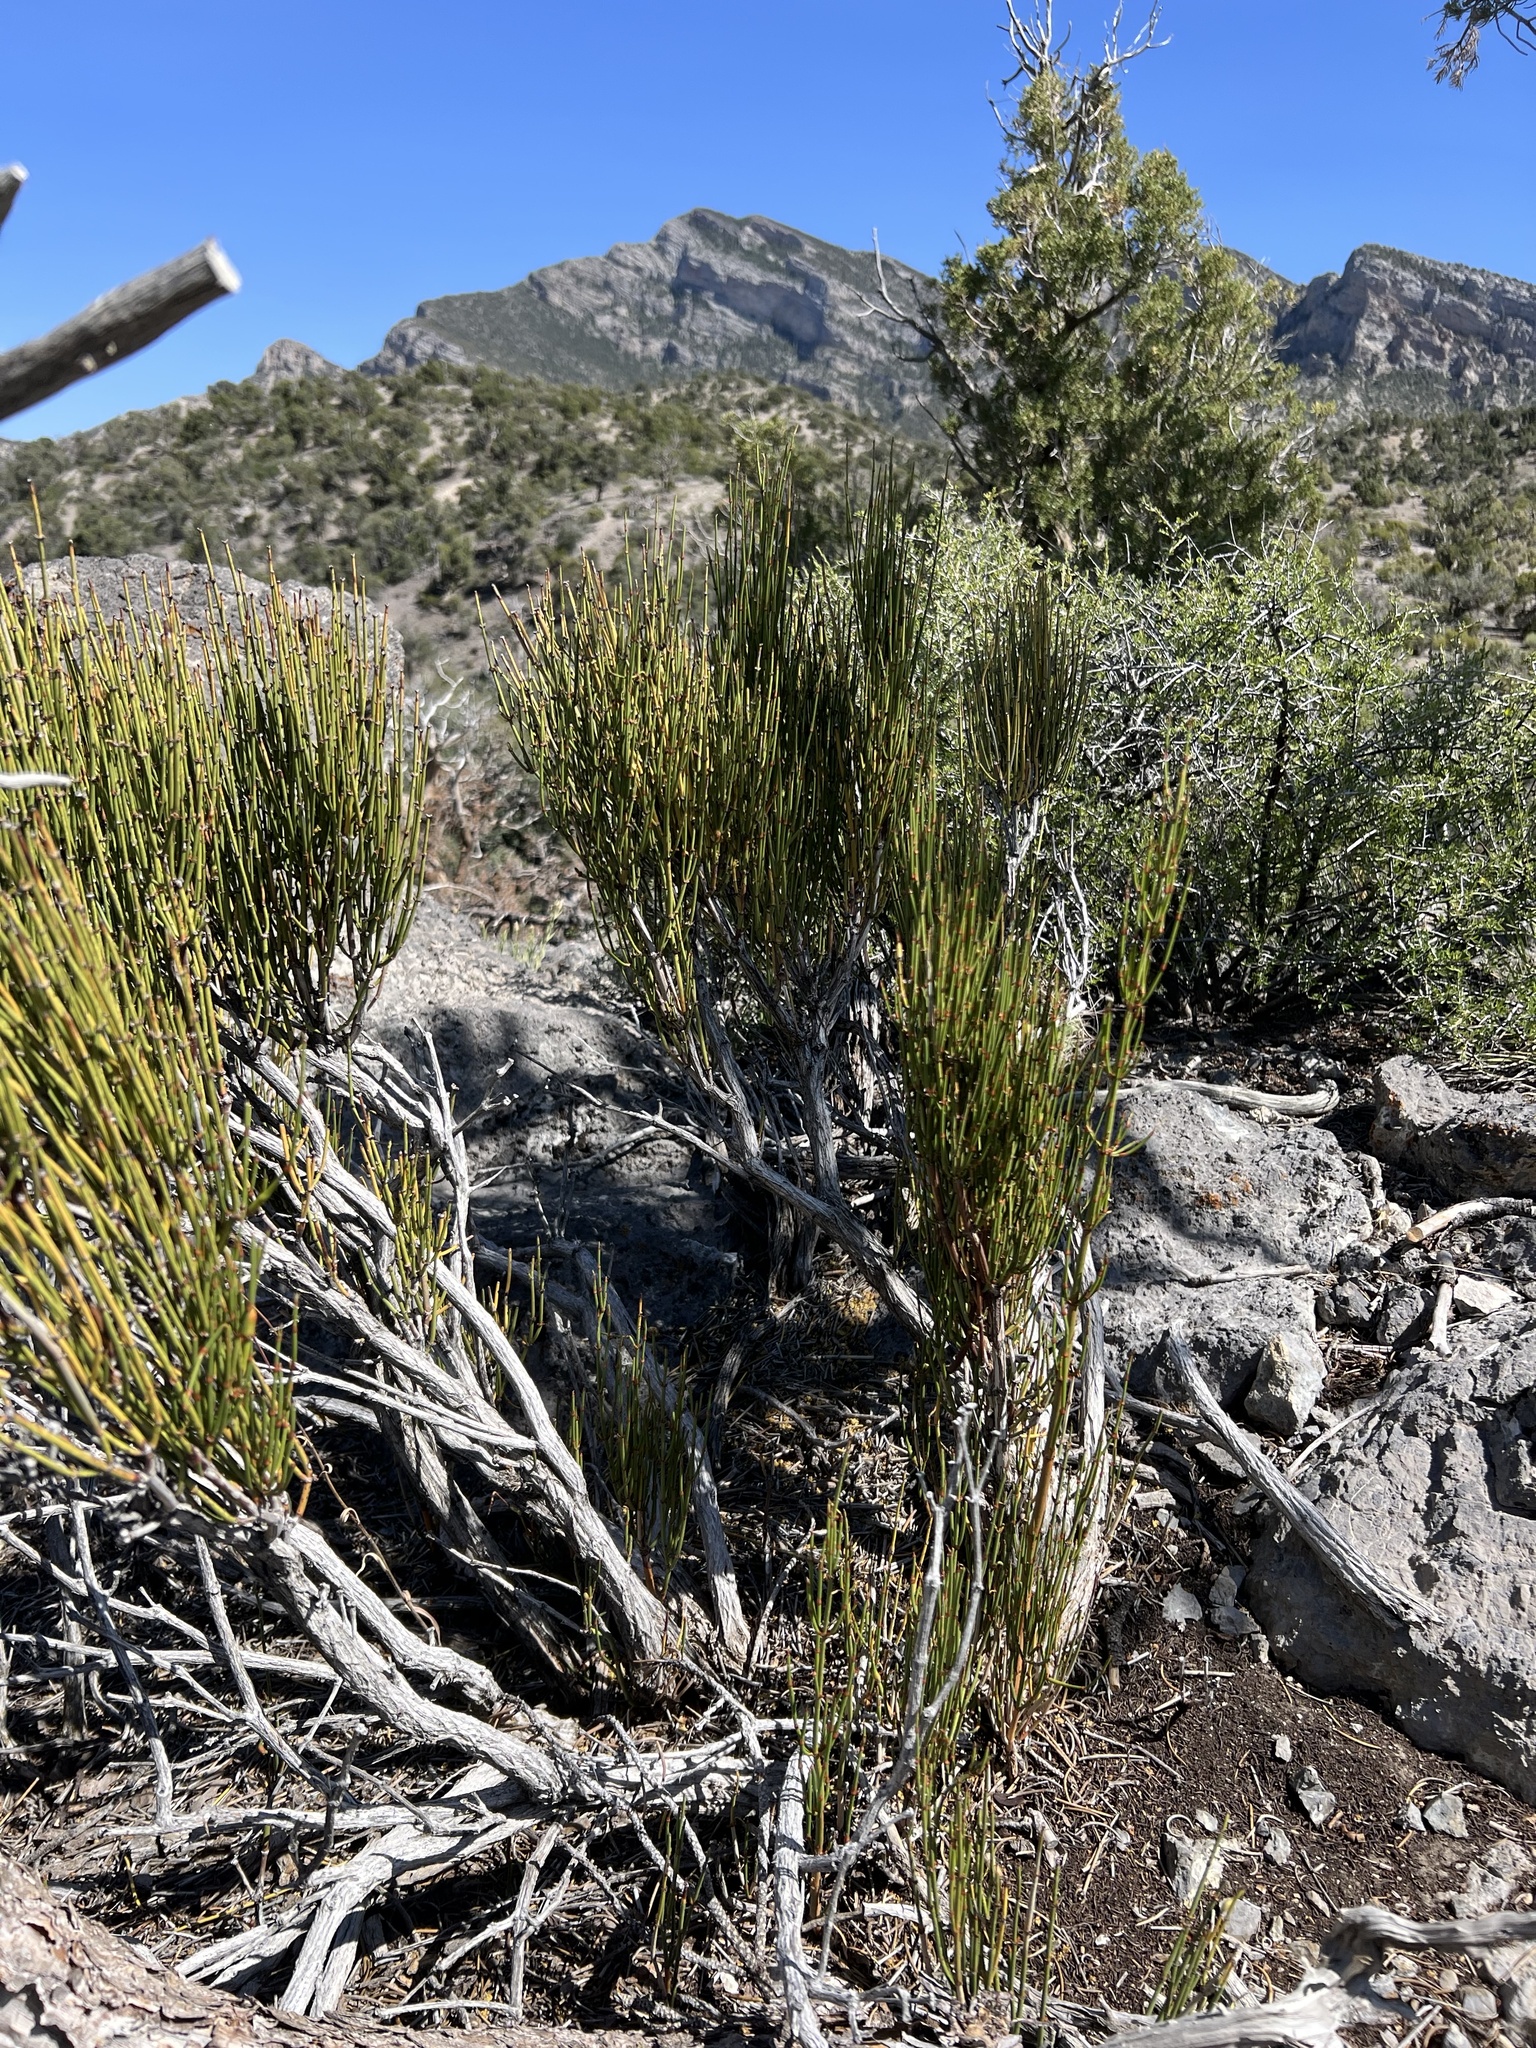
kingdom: Plantae
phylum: Tracheophyta
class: Gnetopsida
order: Ephedrales
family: Ephedraceae
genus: Ephedra
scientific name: Ephedra viridis
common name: Green ephedra
